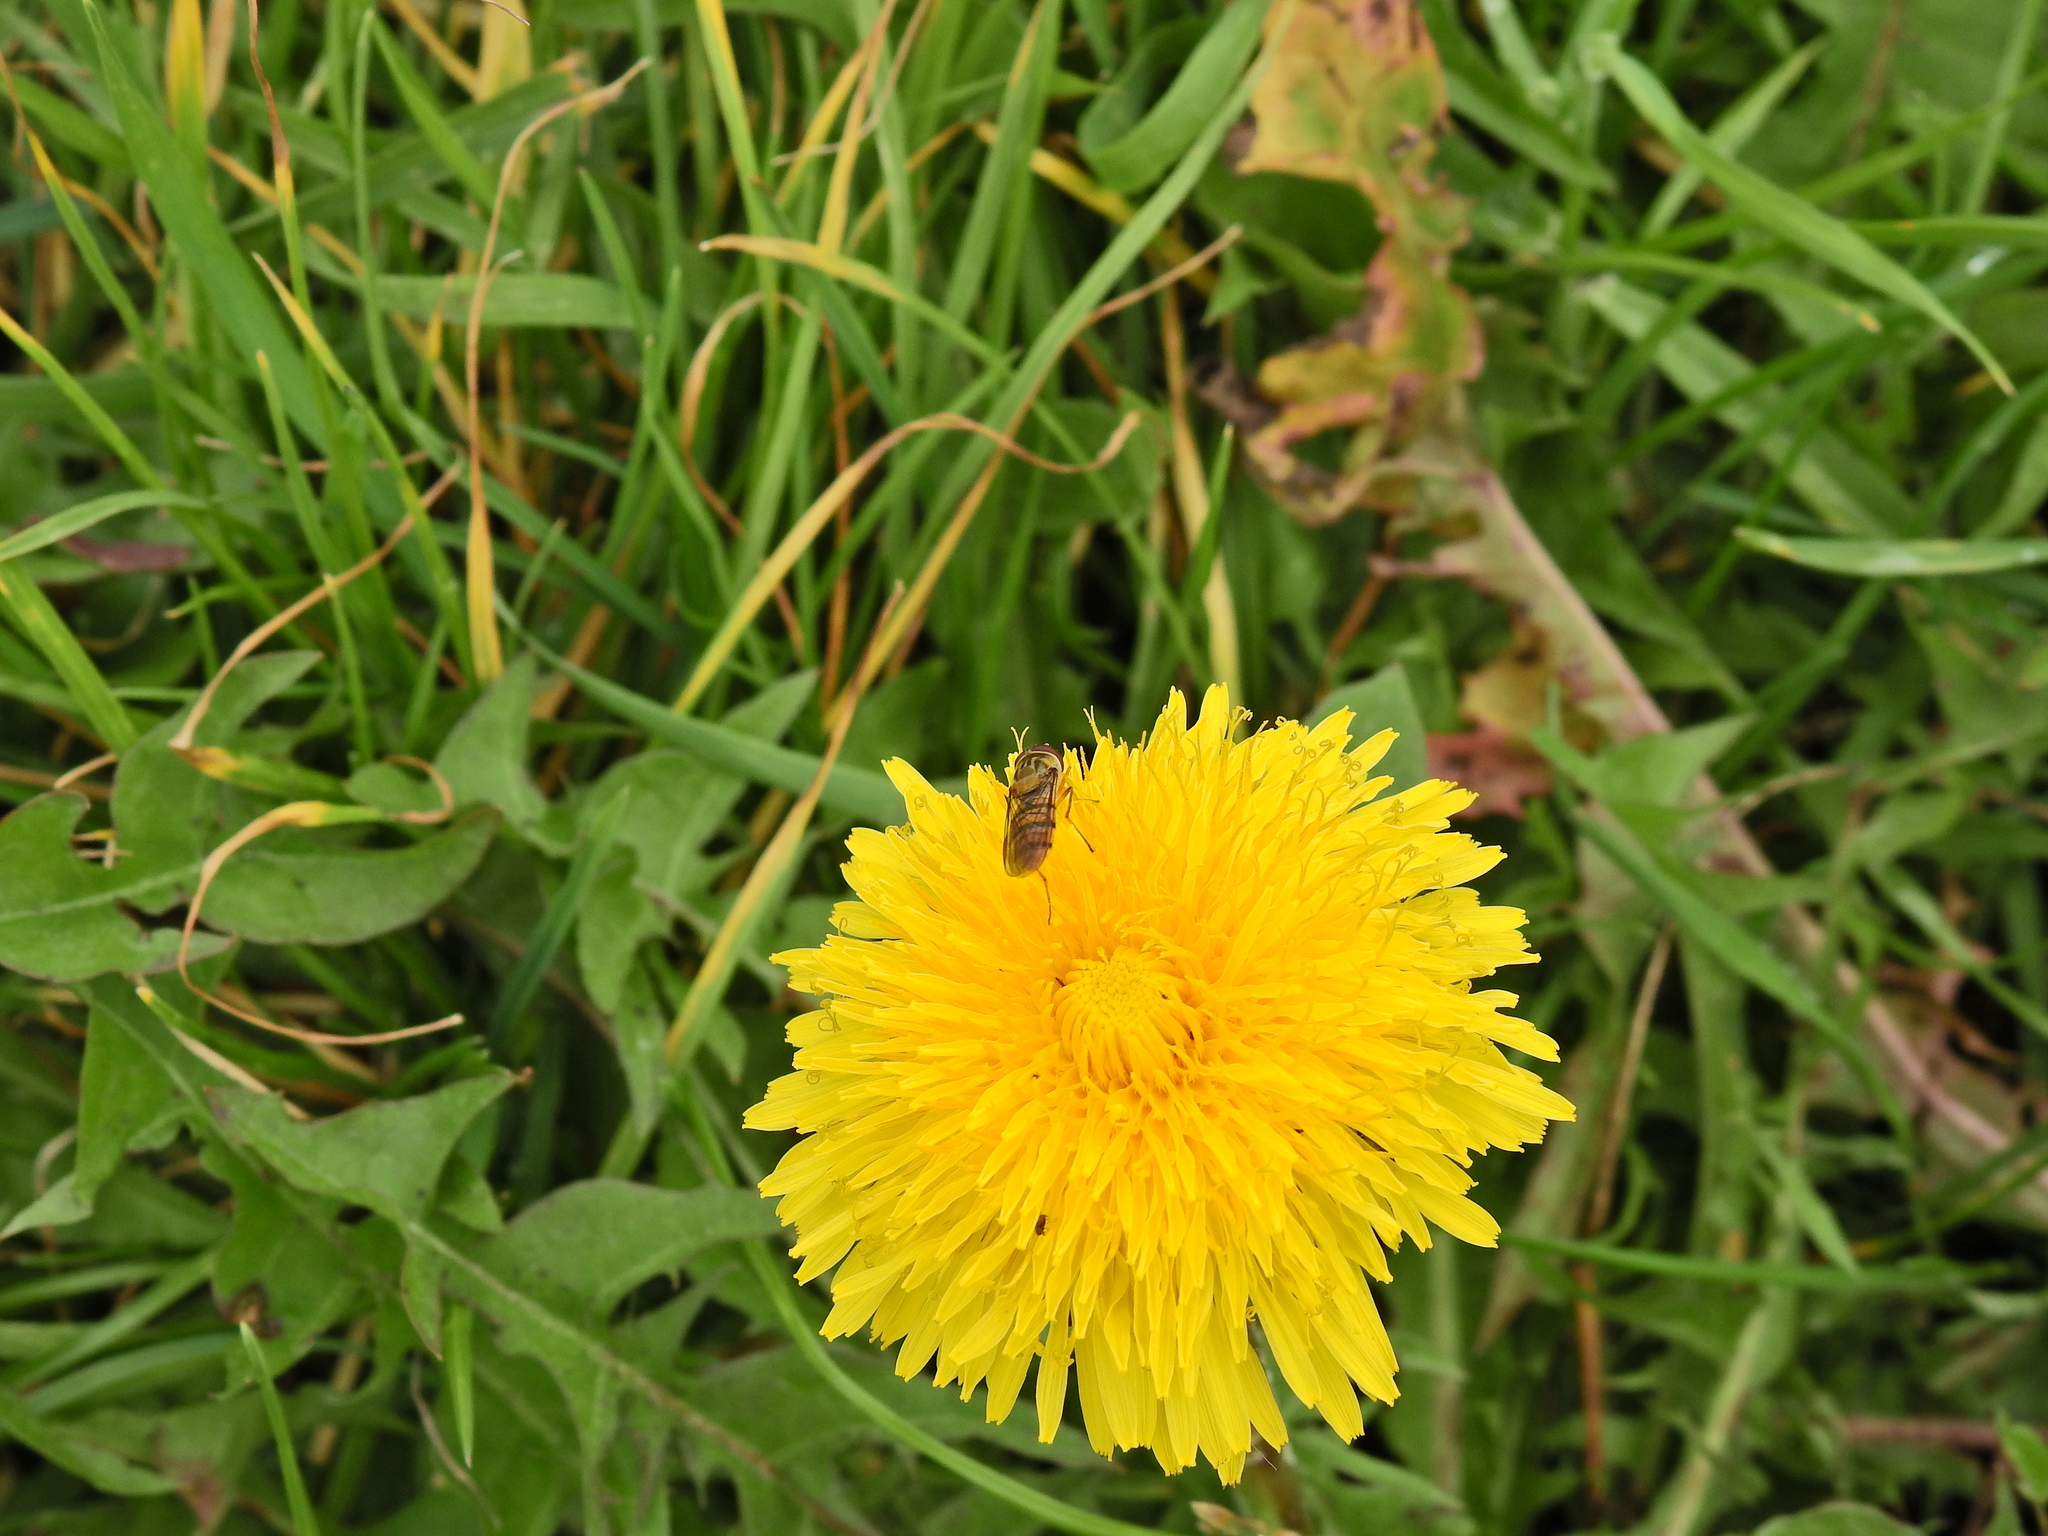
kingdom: Animalia
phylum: Arthropoda
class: Insecta
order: Diptera
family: Syrphidae
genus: Episyrphus
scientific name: Episyrphus balteatus
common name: Marmalade hoverfly
